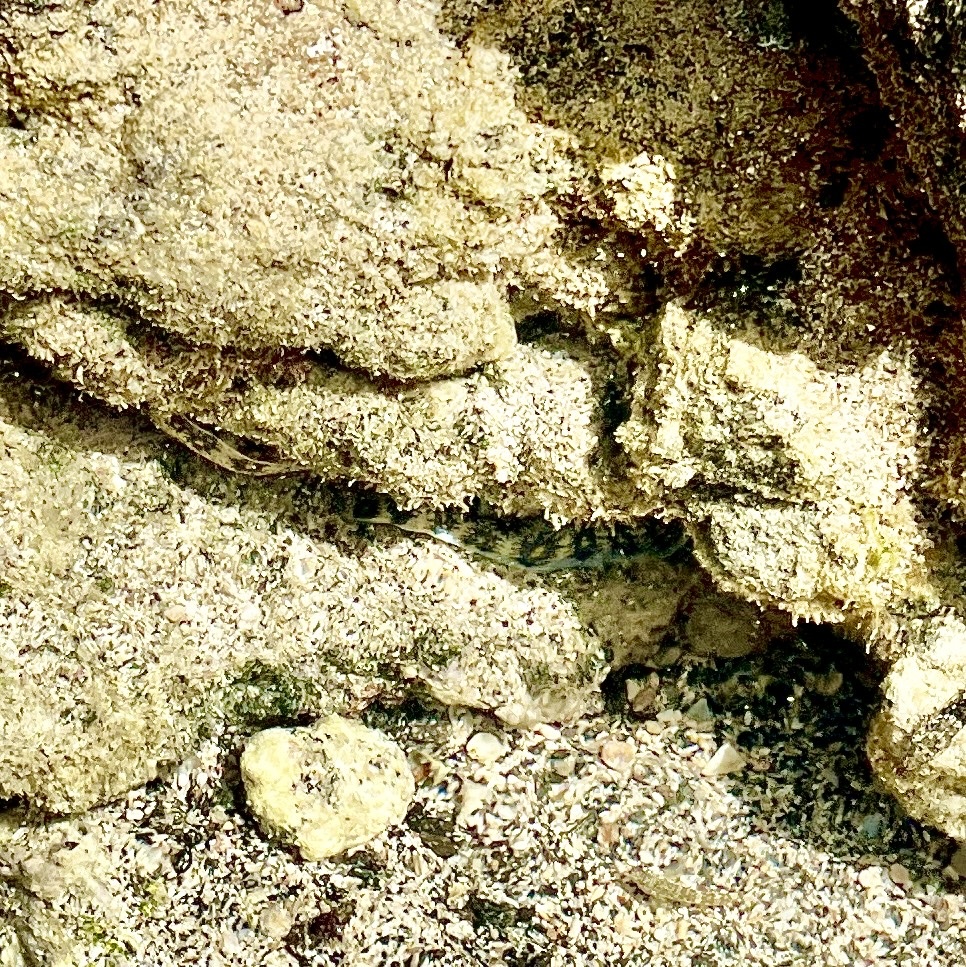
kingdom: Animalia
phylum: Chordata
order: Anguilliformes
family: Muraenidae
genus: Echidna
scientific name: Echidna nebulosa
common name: Snowflake moray
